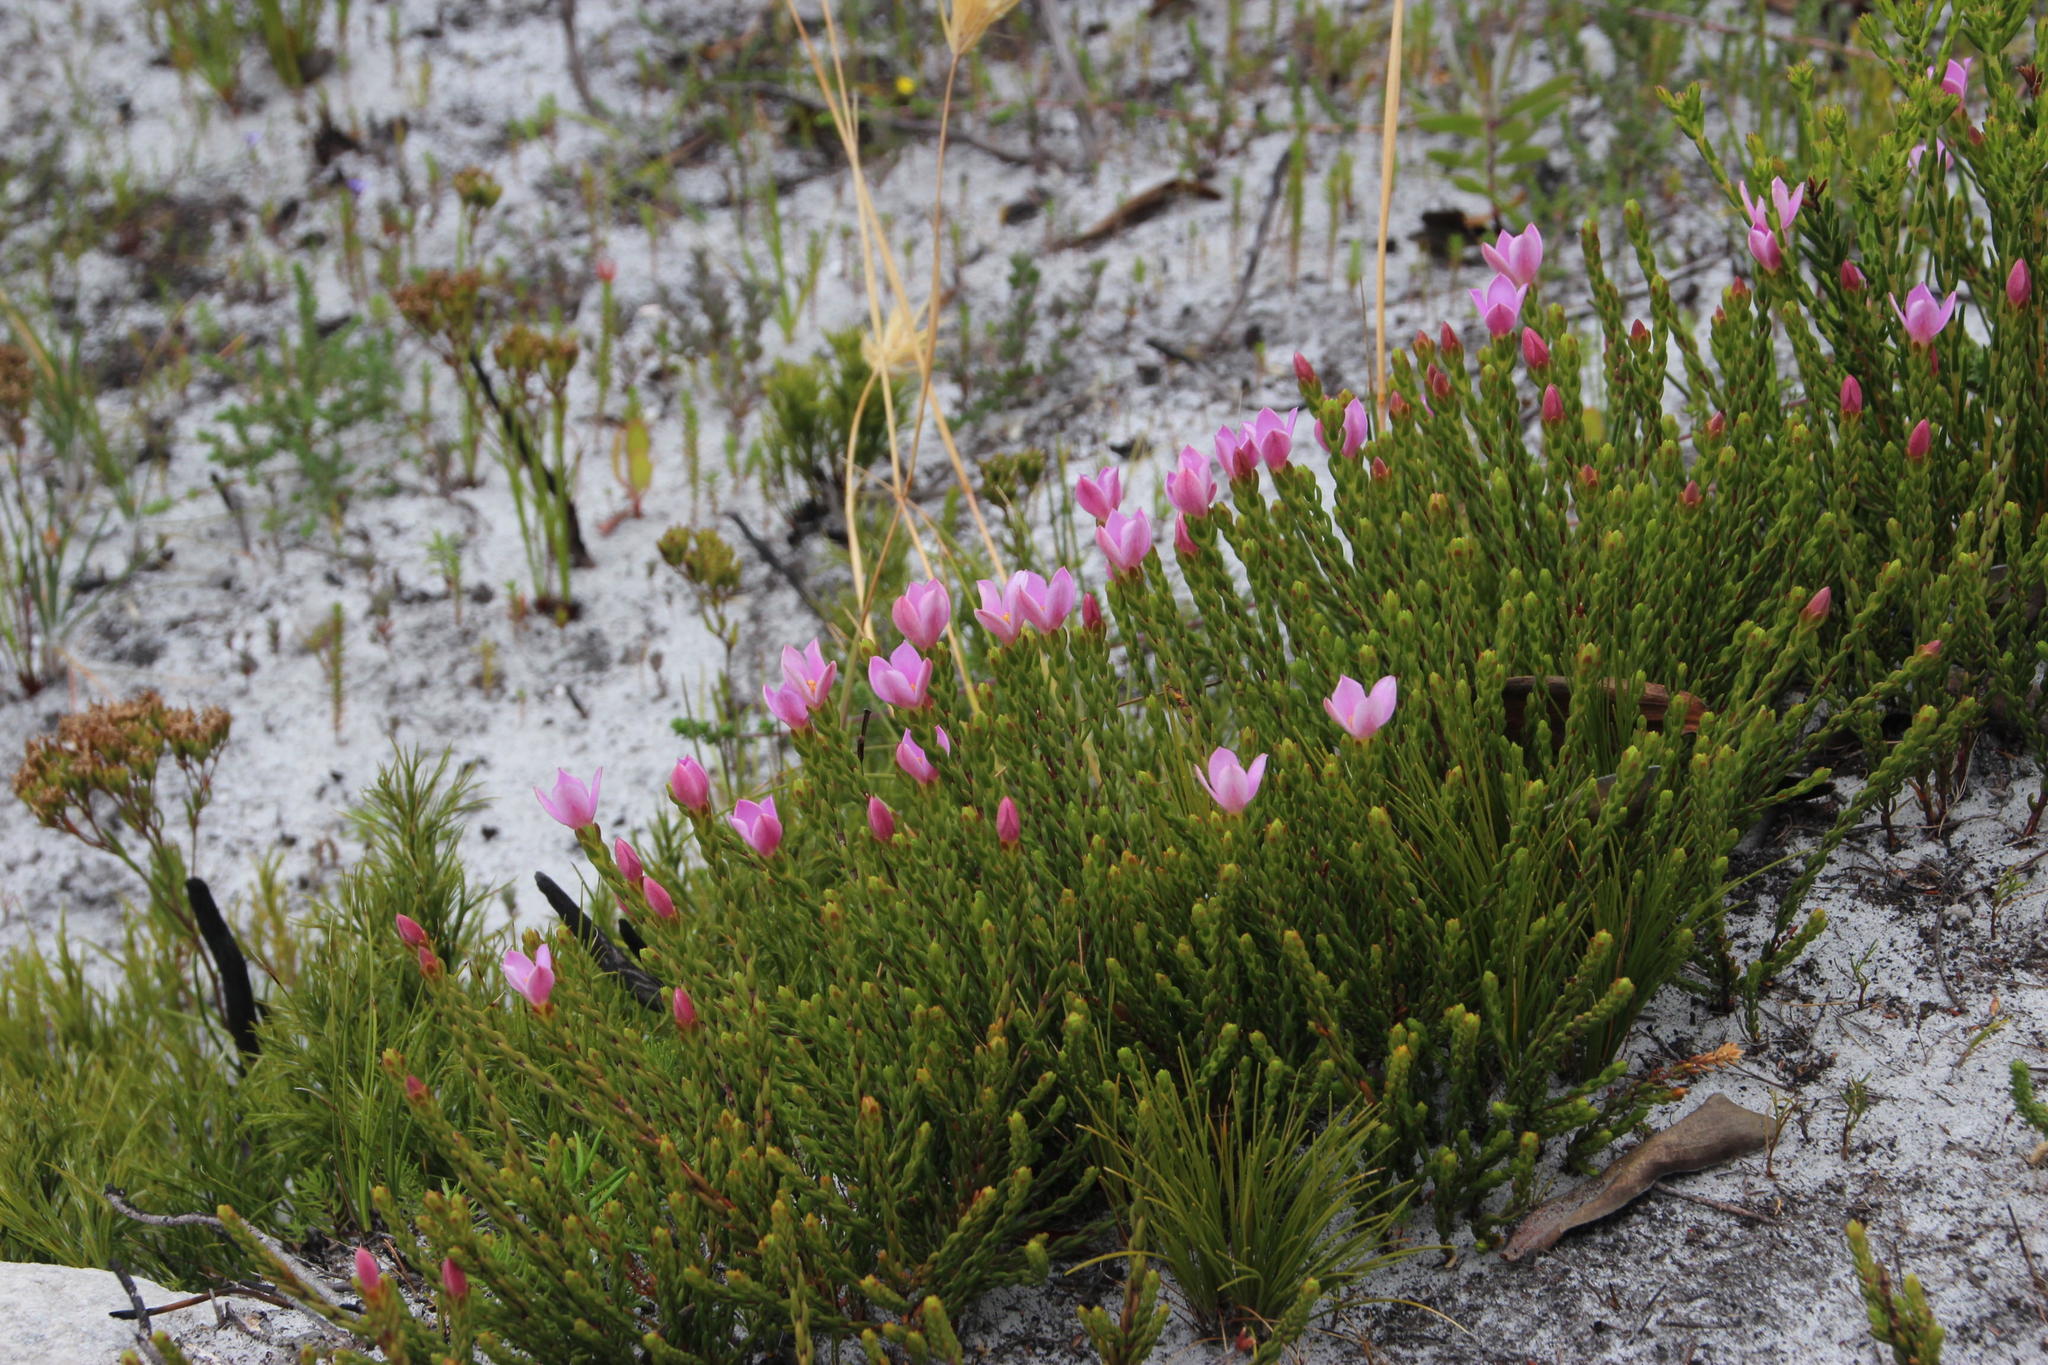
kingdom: Plantae
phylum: Tracheophyta
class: Magnoliopsida
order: Malvales
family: Thymelaeaceae
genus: Lachnaea
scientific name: Lachnaea grandiflora
